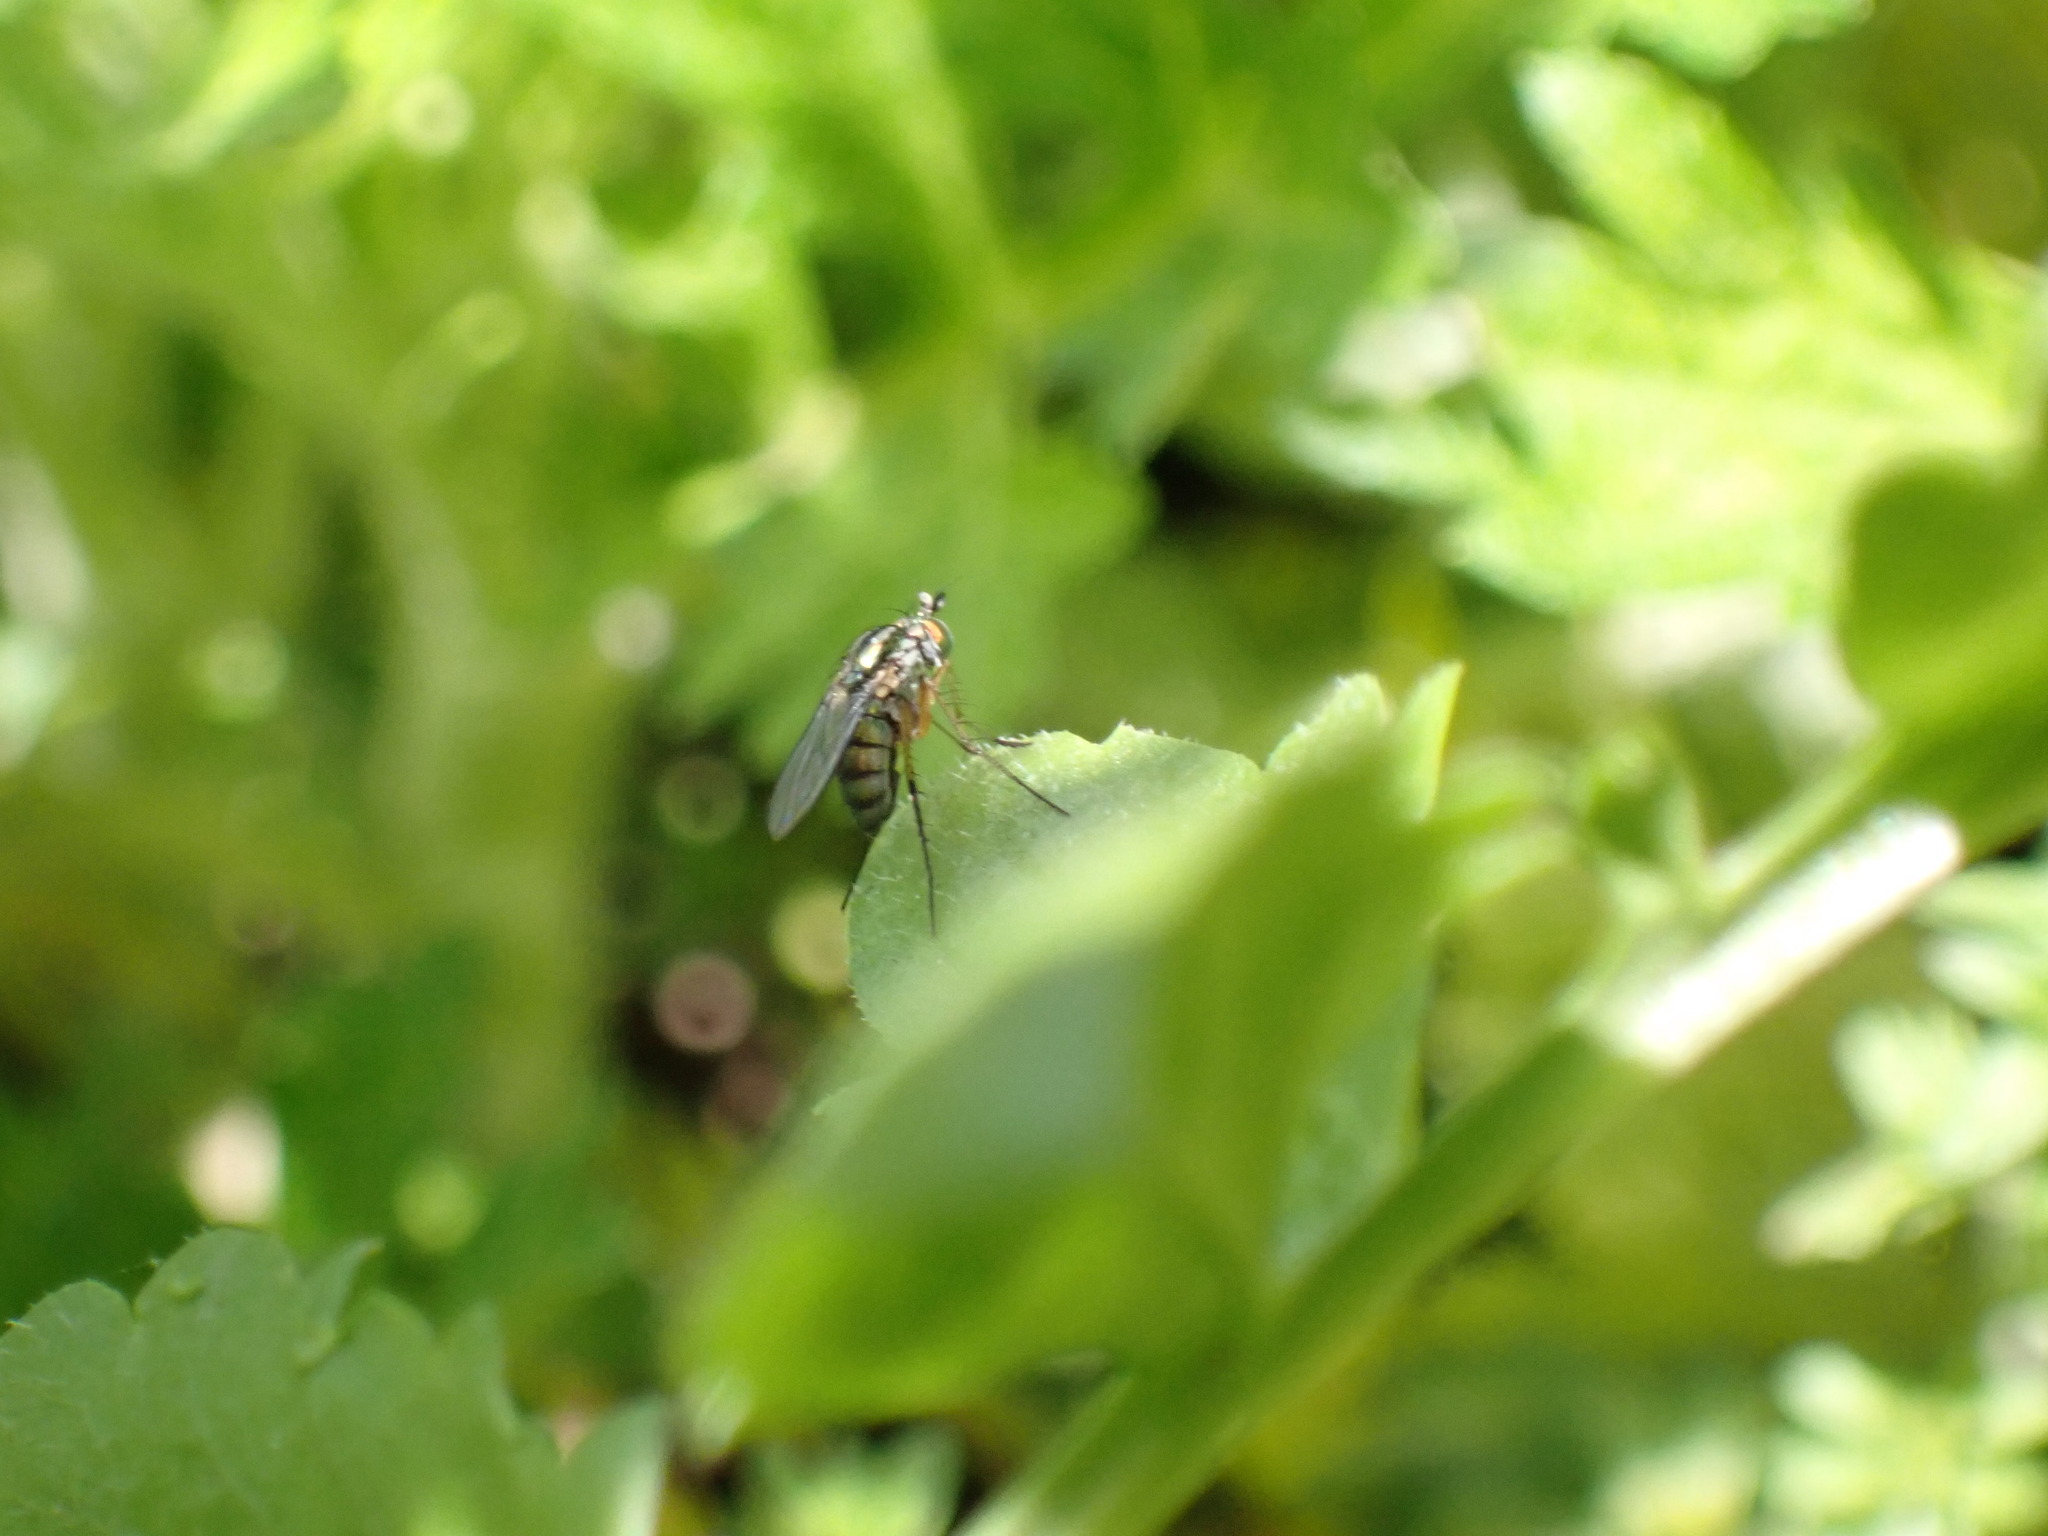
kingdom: Animalia
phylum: Arthropoda
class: Insecta
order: Diptera
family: Dolichopodidae
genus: Dolichopus
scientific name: Dolichopus comatus
